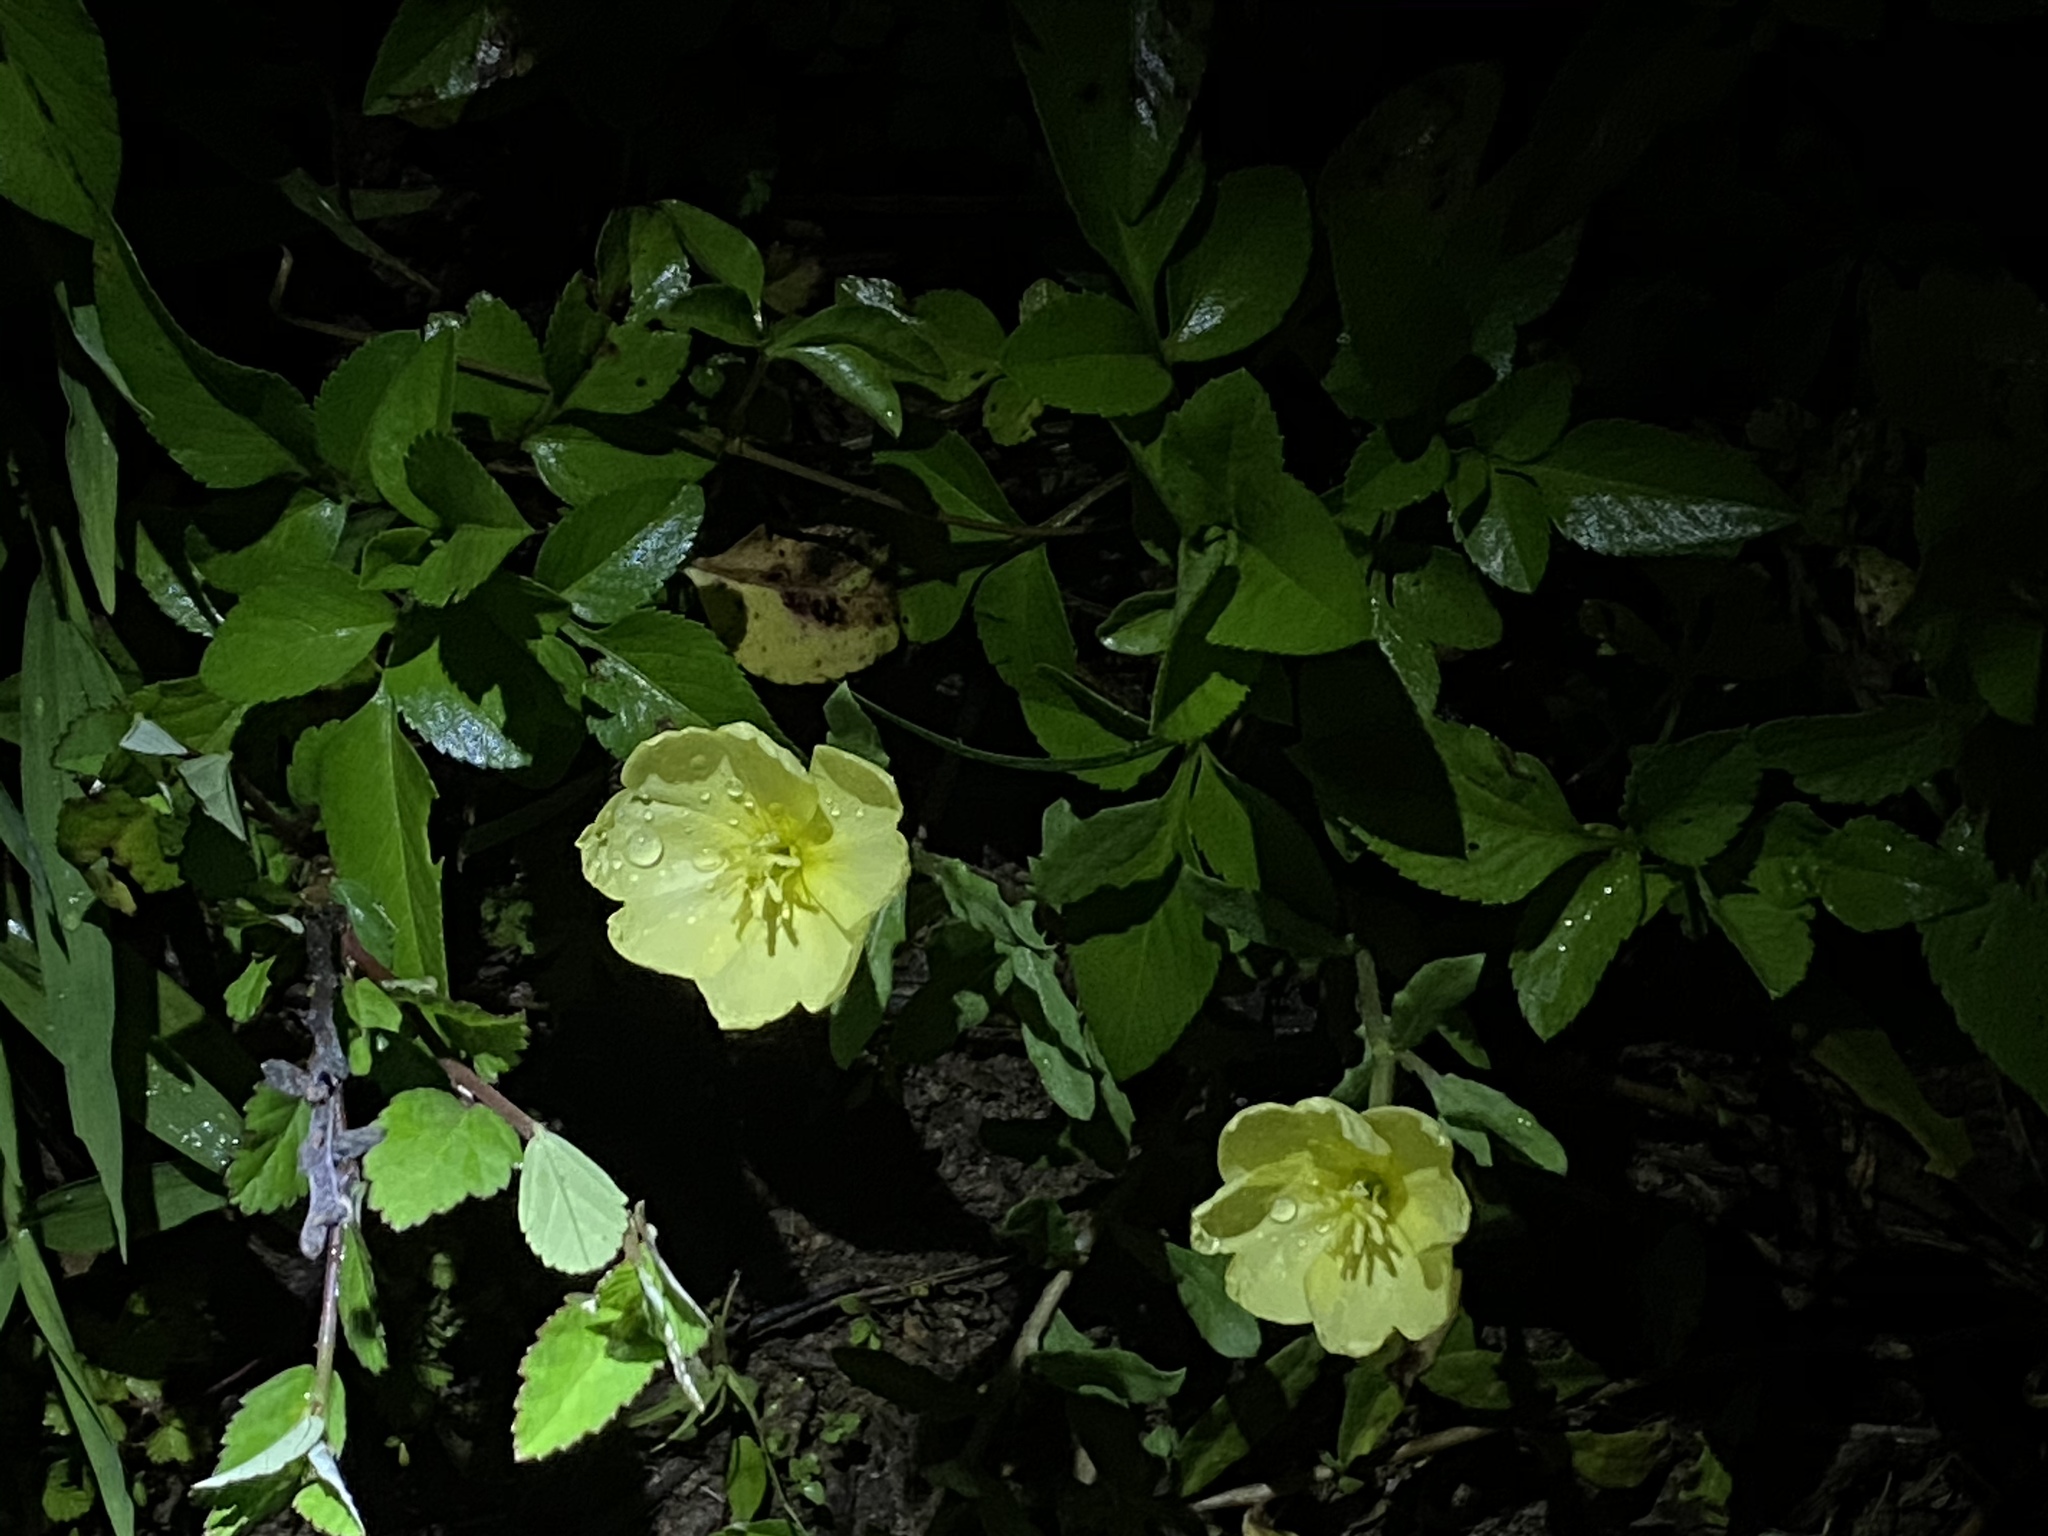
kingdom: Plantae
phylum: Tracheophyta
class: Magnoliopsida
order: Myrtales
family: Onagraceae
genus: Oenothera
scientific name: Oenothera laciniata
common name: Cut-leaved evening-primrose
